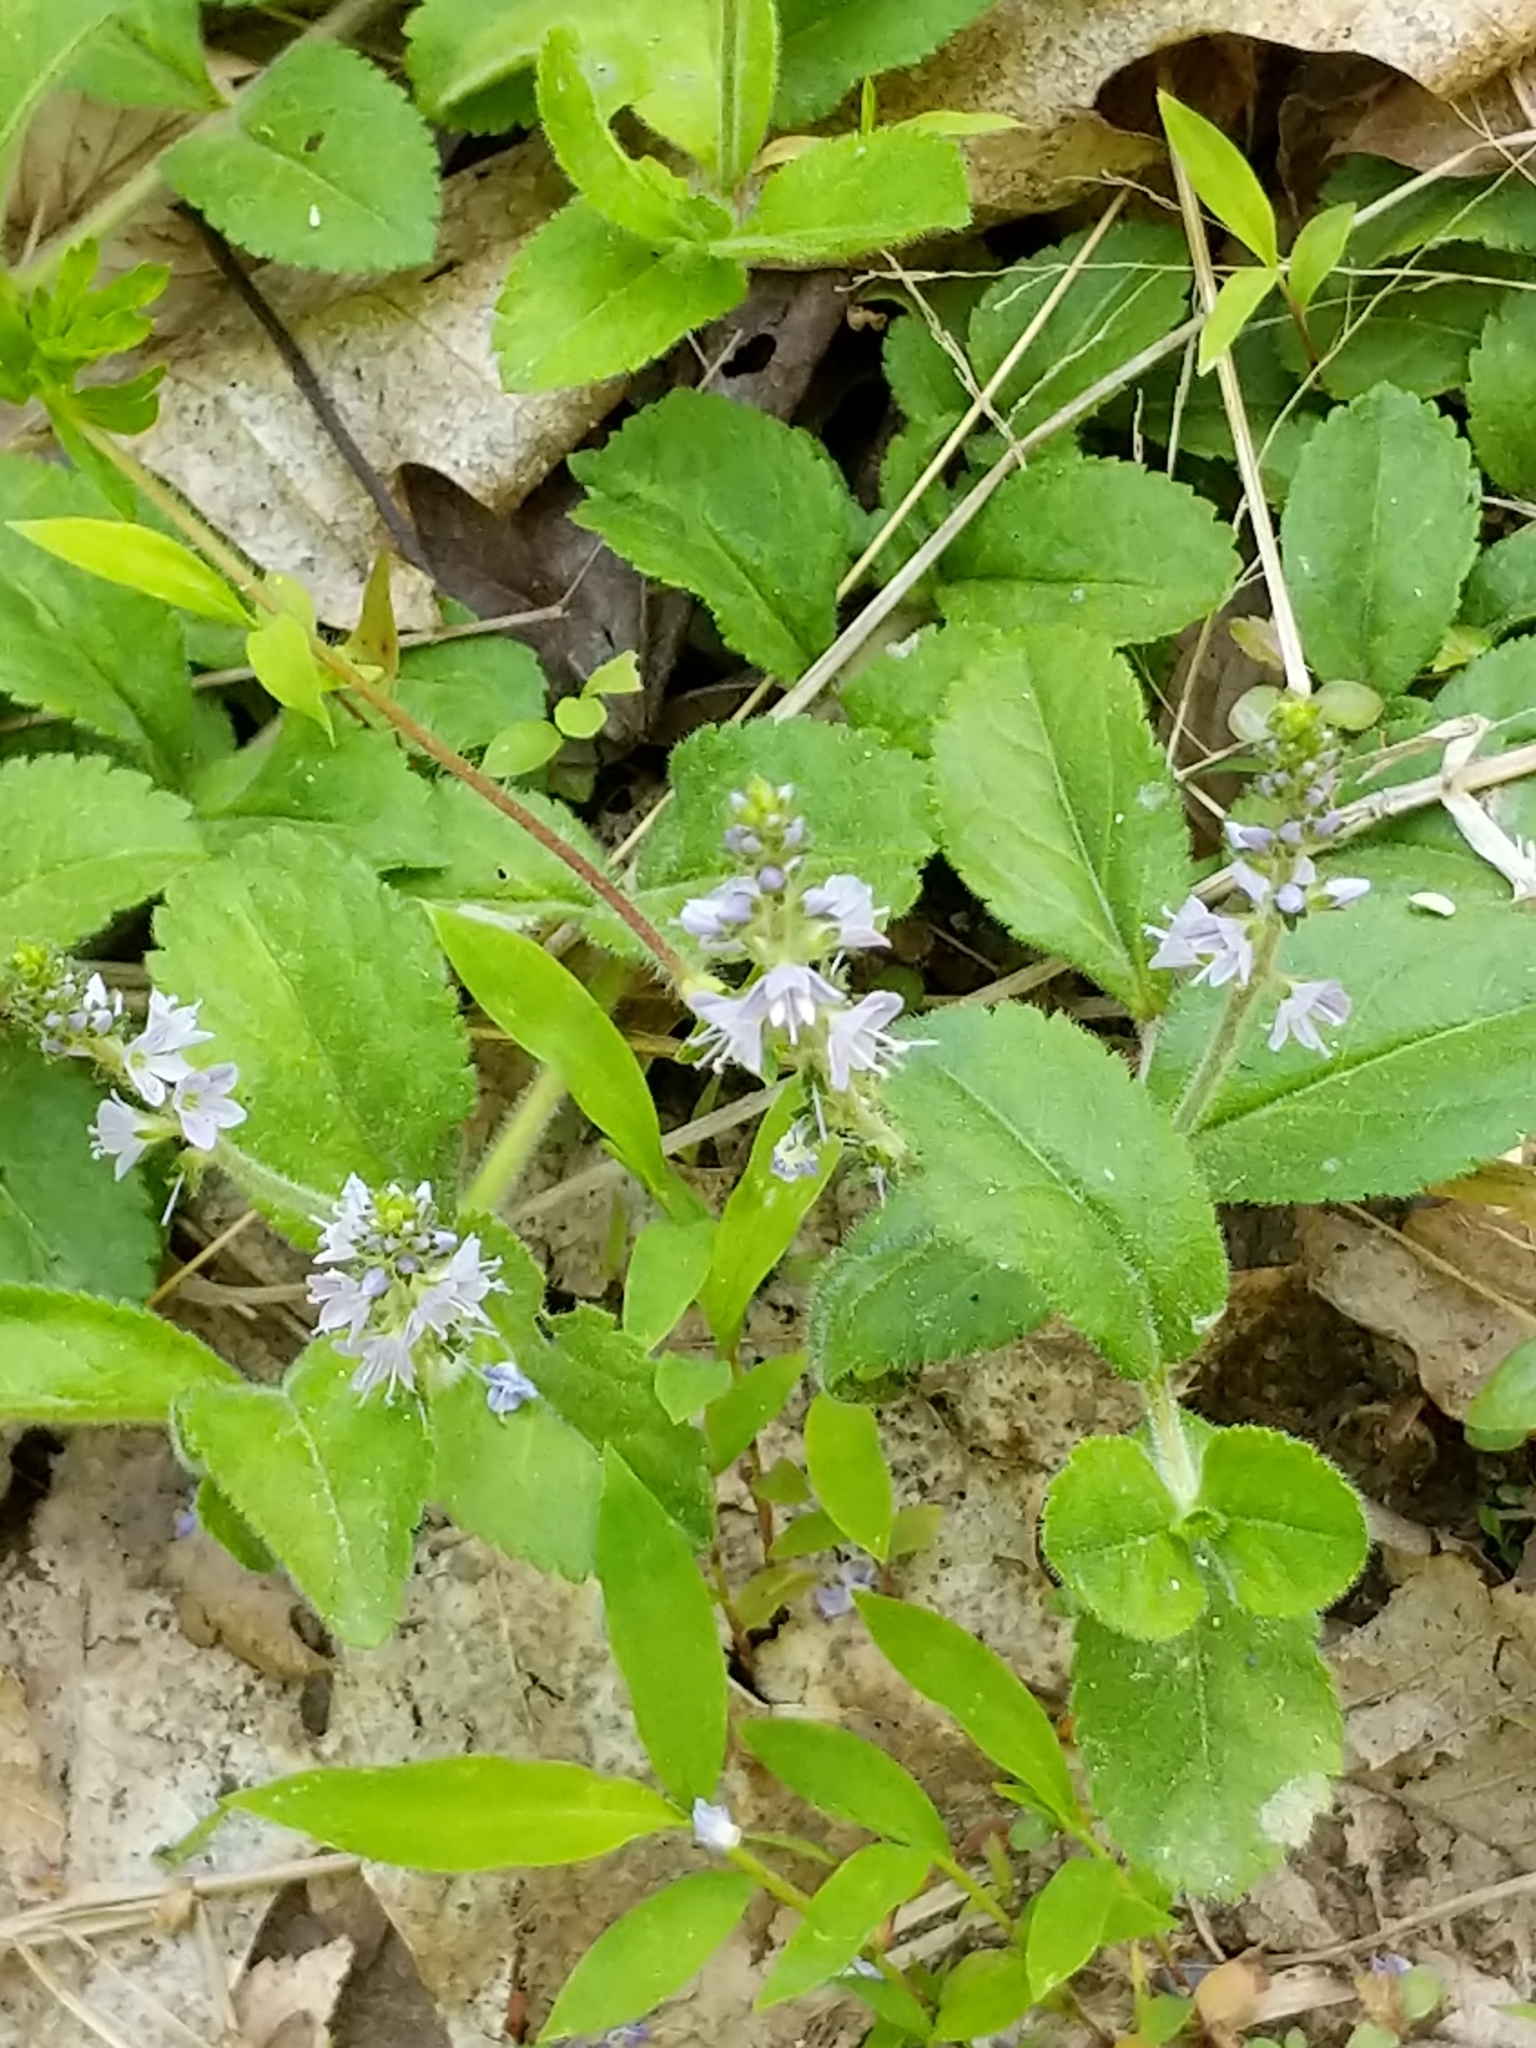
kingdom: Plantae
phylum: Tracheophyta
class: Magnoliopsida
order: Lamiales
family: Plantaginaceae
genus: Veronica
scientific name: Veronica officinalis
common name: Common speedwell
